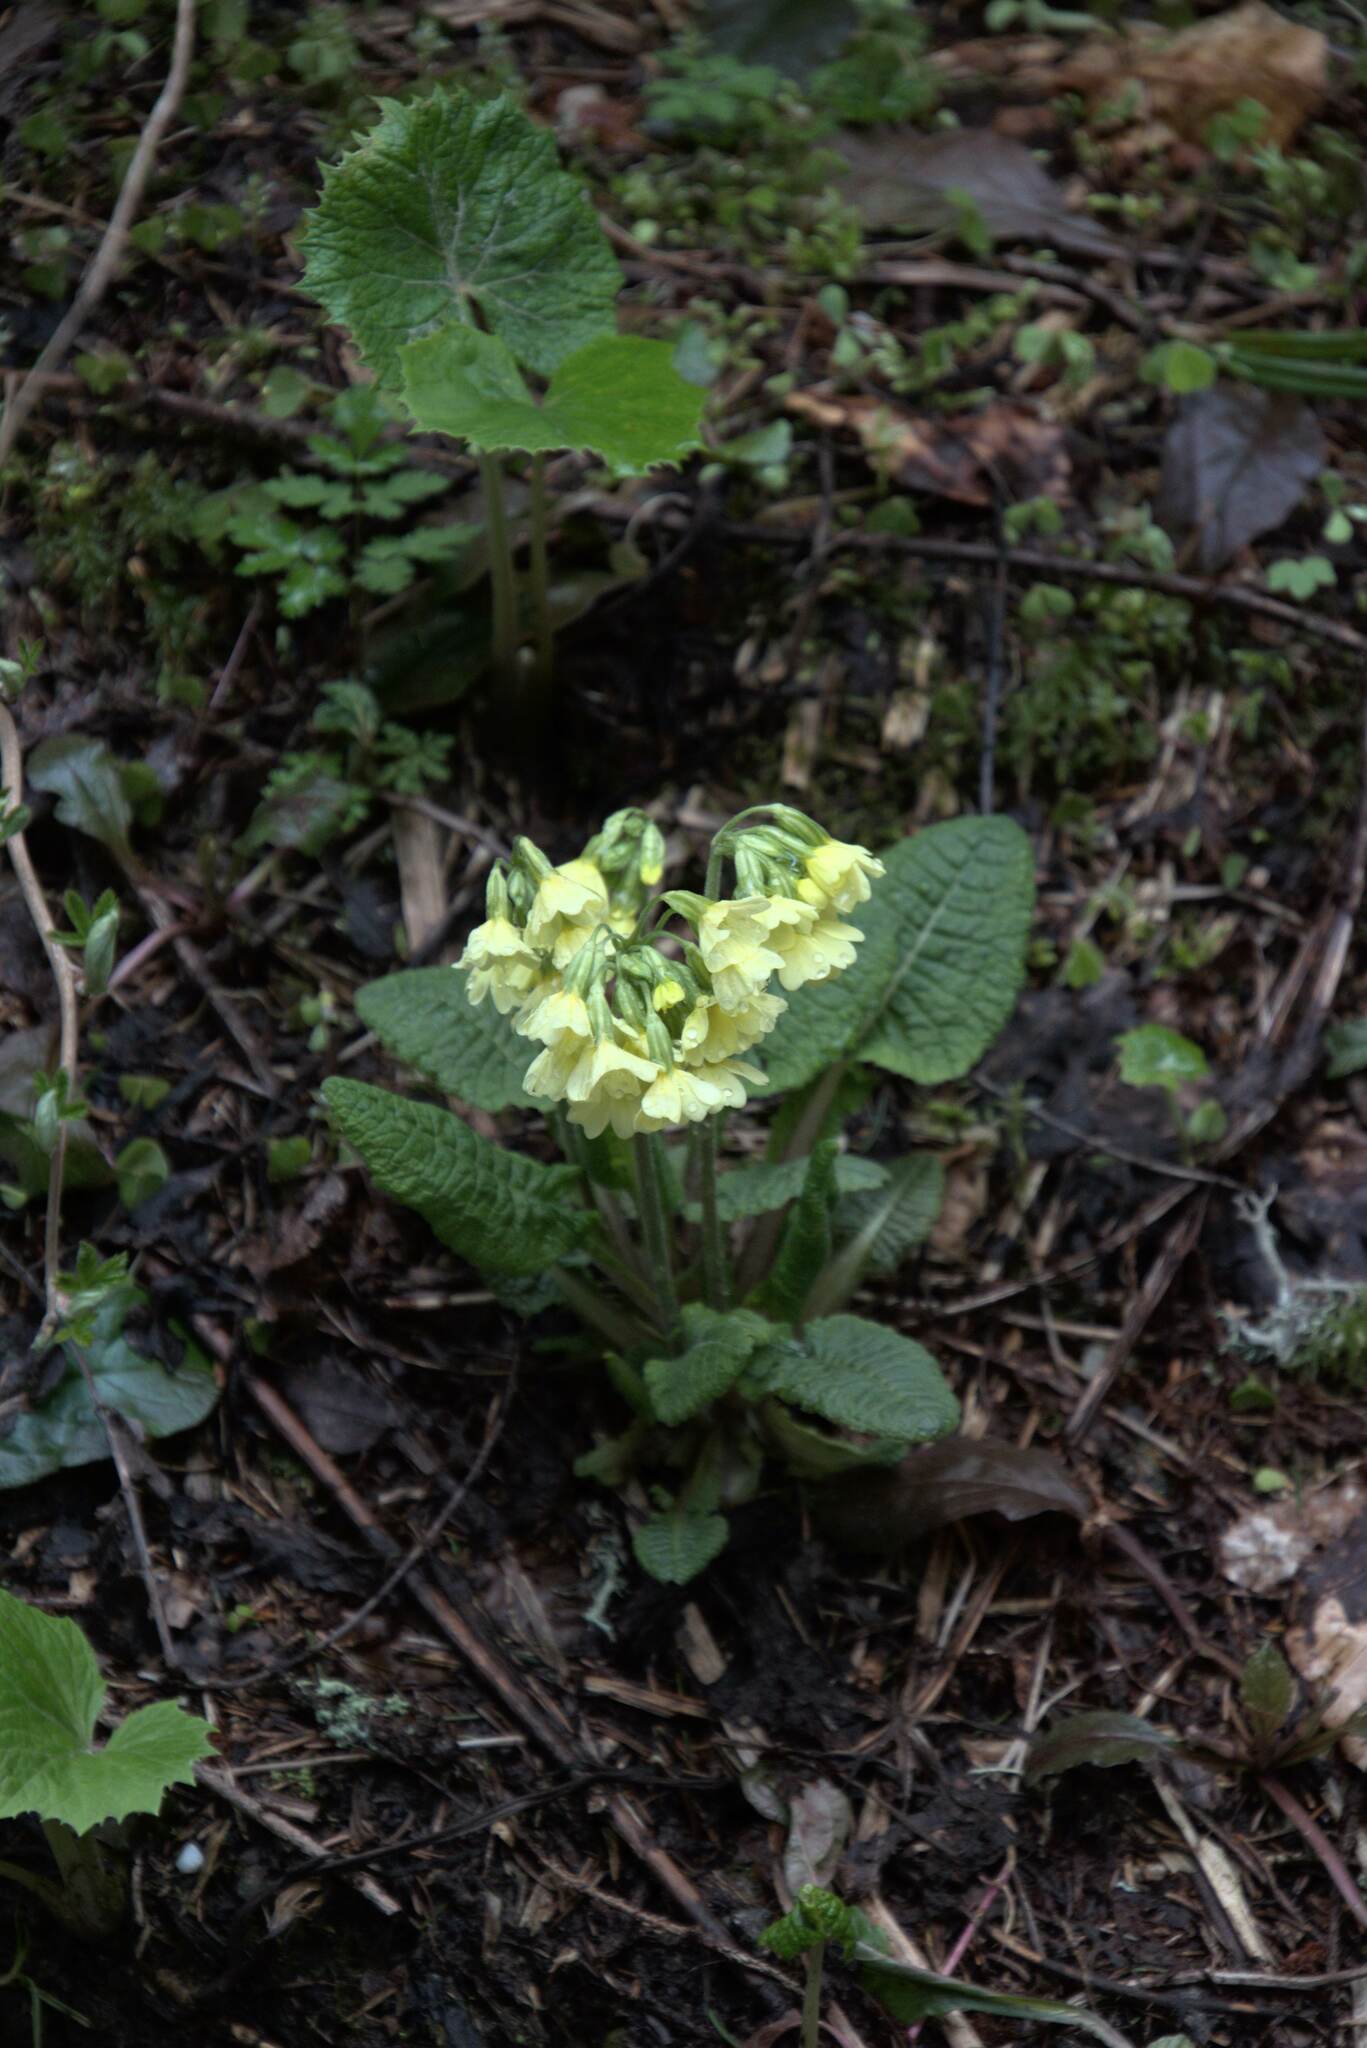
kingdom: Plantae
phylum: Tracheophyta
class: Magnoliopsida
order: Ericales
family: Primulaceae
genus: Primula
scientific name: Primula elatior
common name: Oxlip
